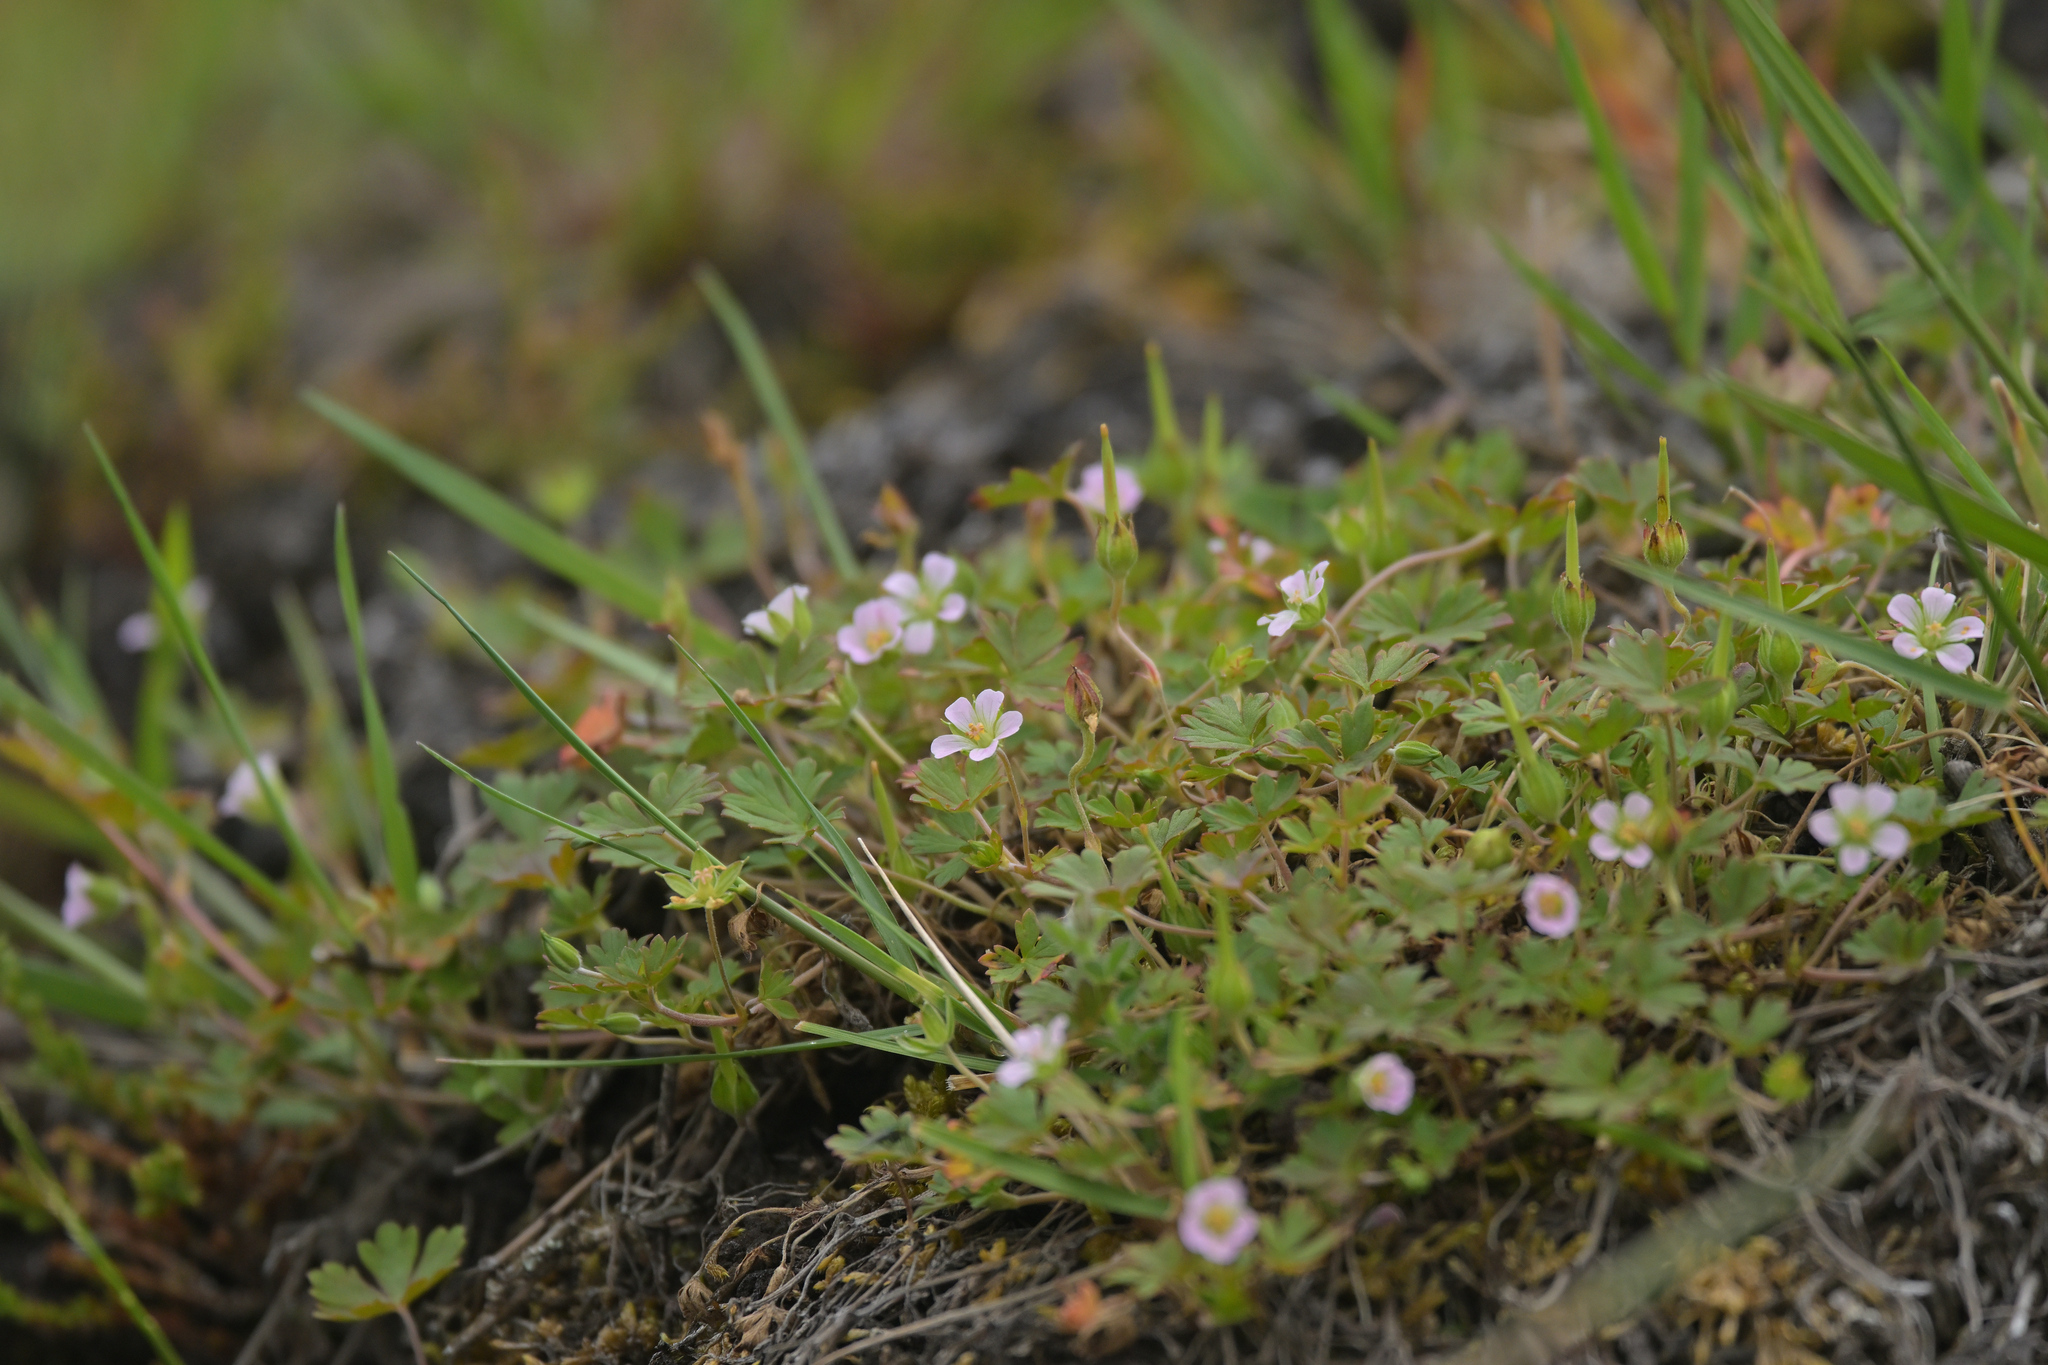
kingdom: Plantae
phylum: Tracheophyta
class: Magnoliopsida
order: Geraniales
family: Geraniaceae
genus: Geranium
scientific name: Geranium brevicaule
